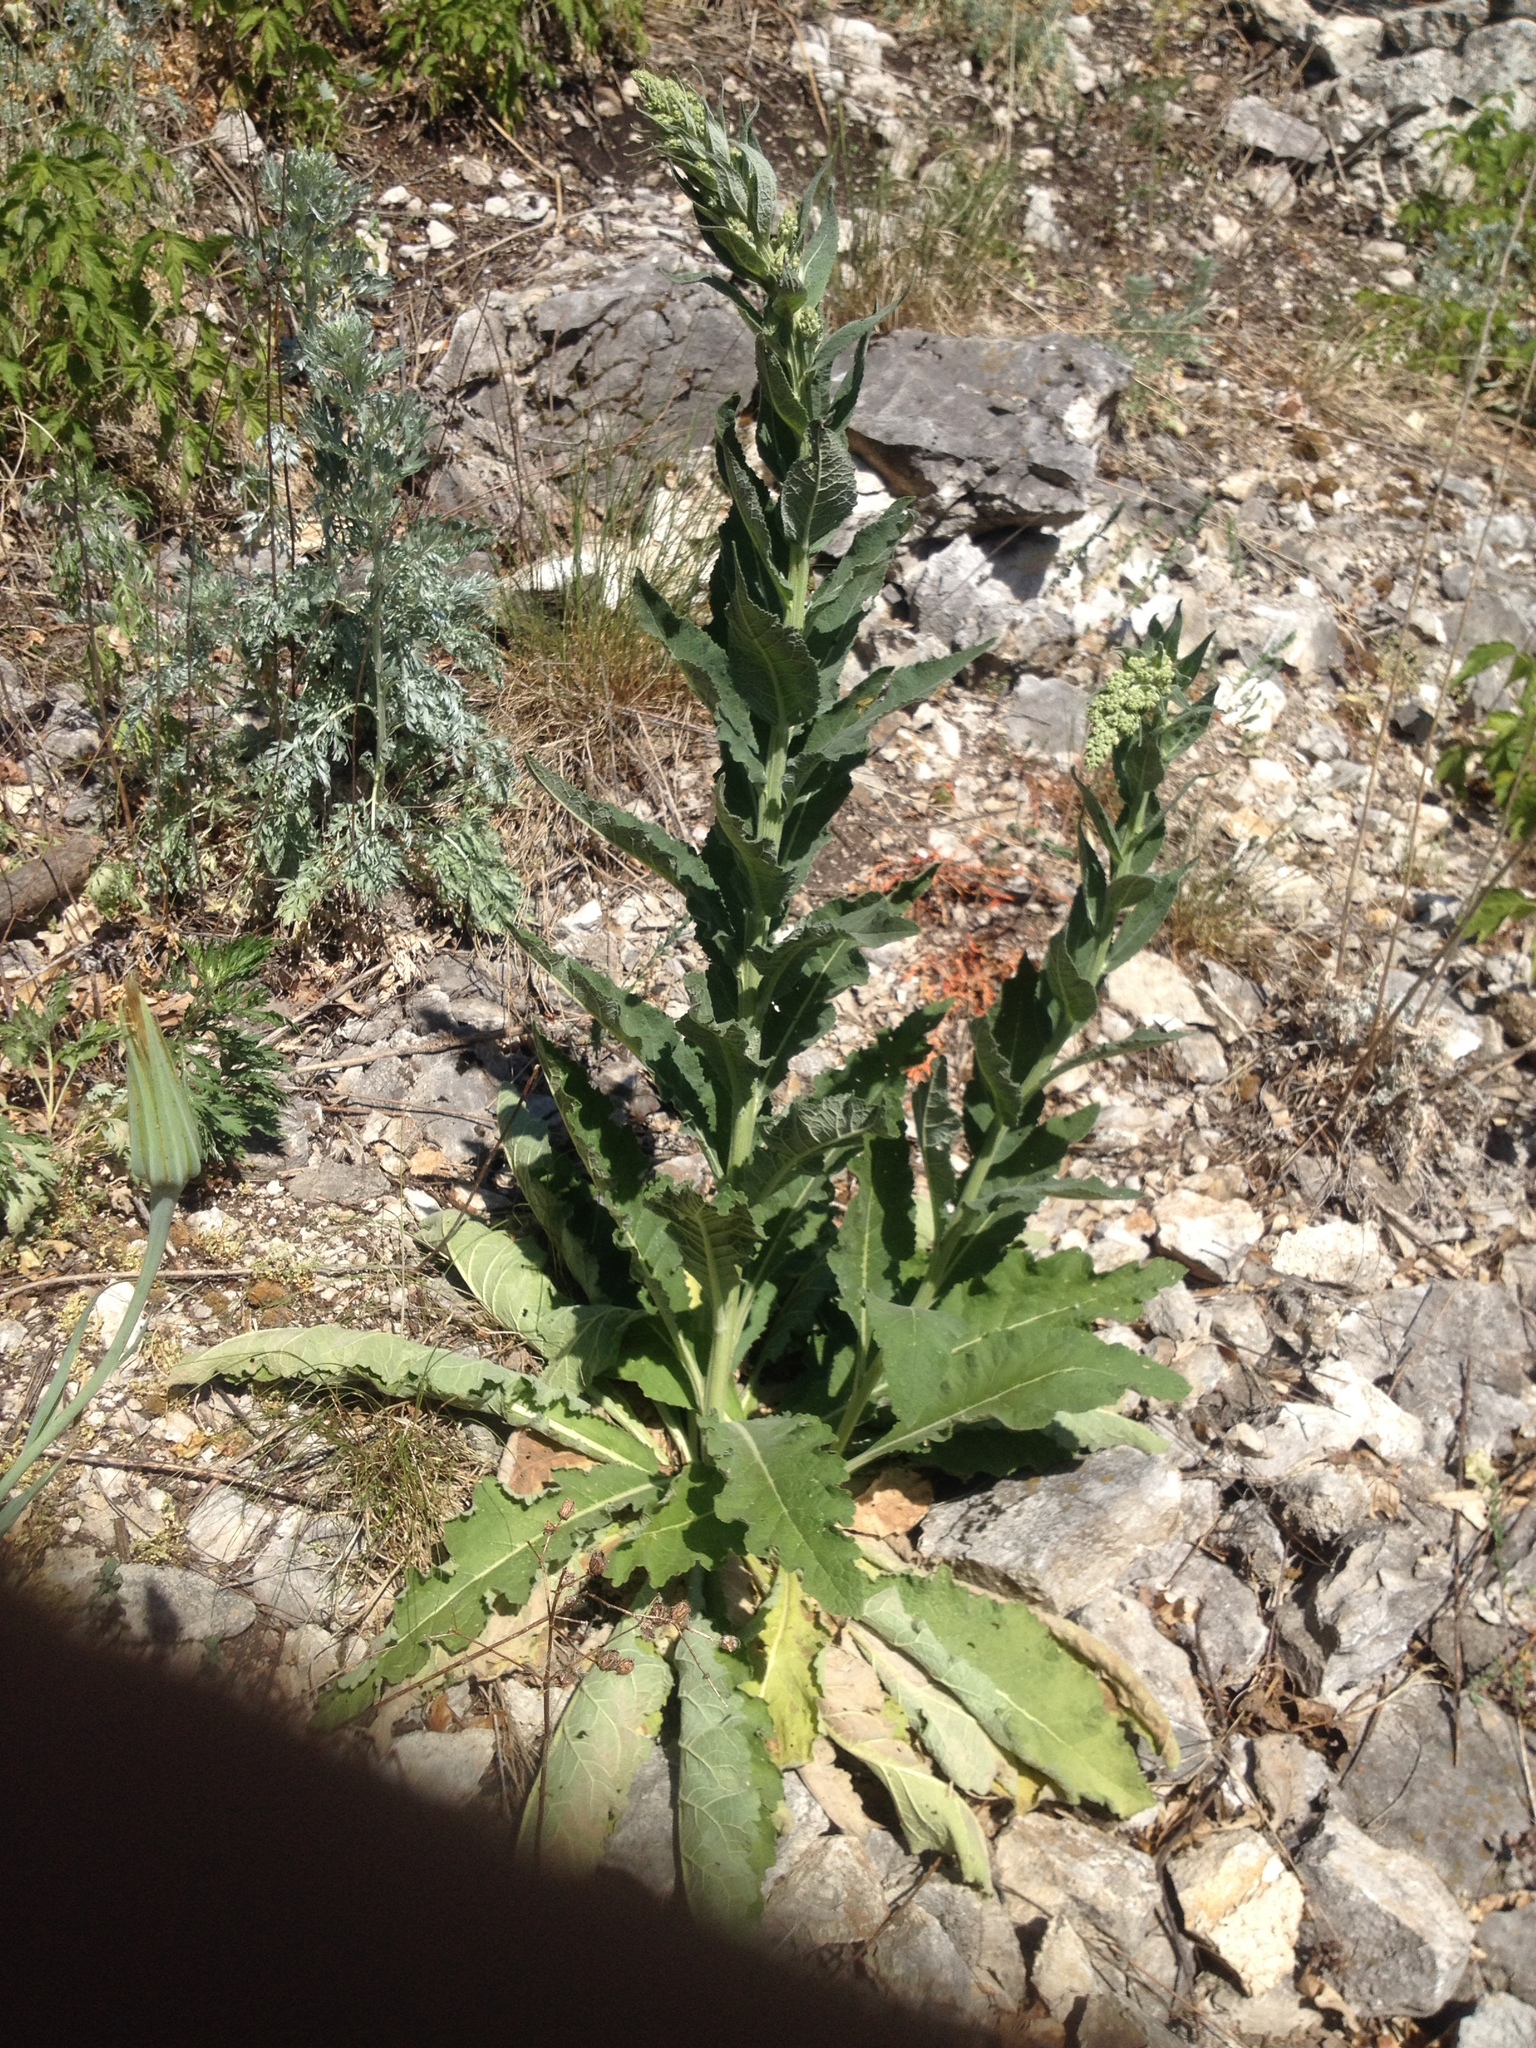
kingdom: Plantae
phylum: Tracheophyta
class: Magnoliopsida
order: Lamiales
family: Scrophulariaceae
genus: Verbascum
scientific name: Verbascum lychnitis
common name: White mullein
